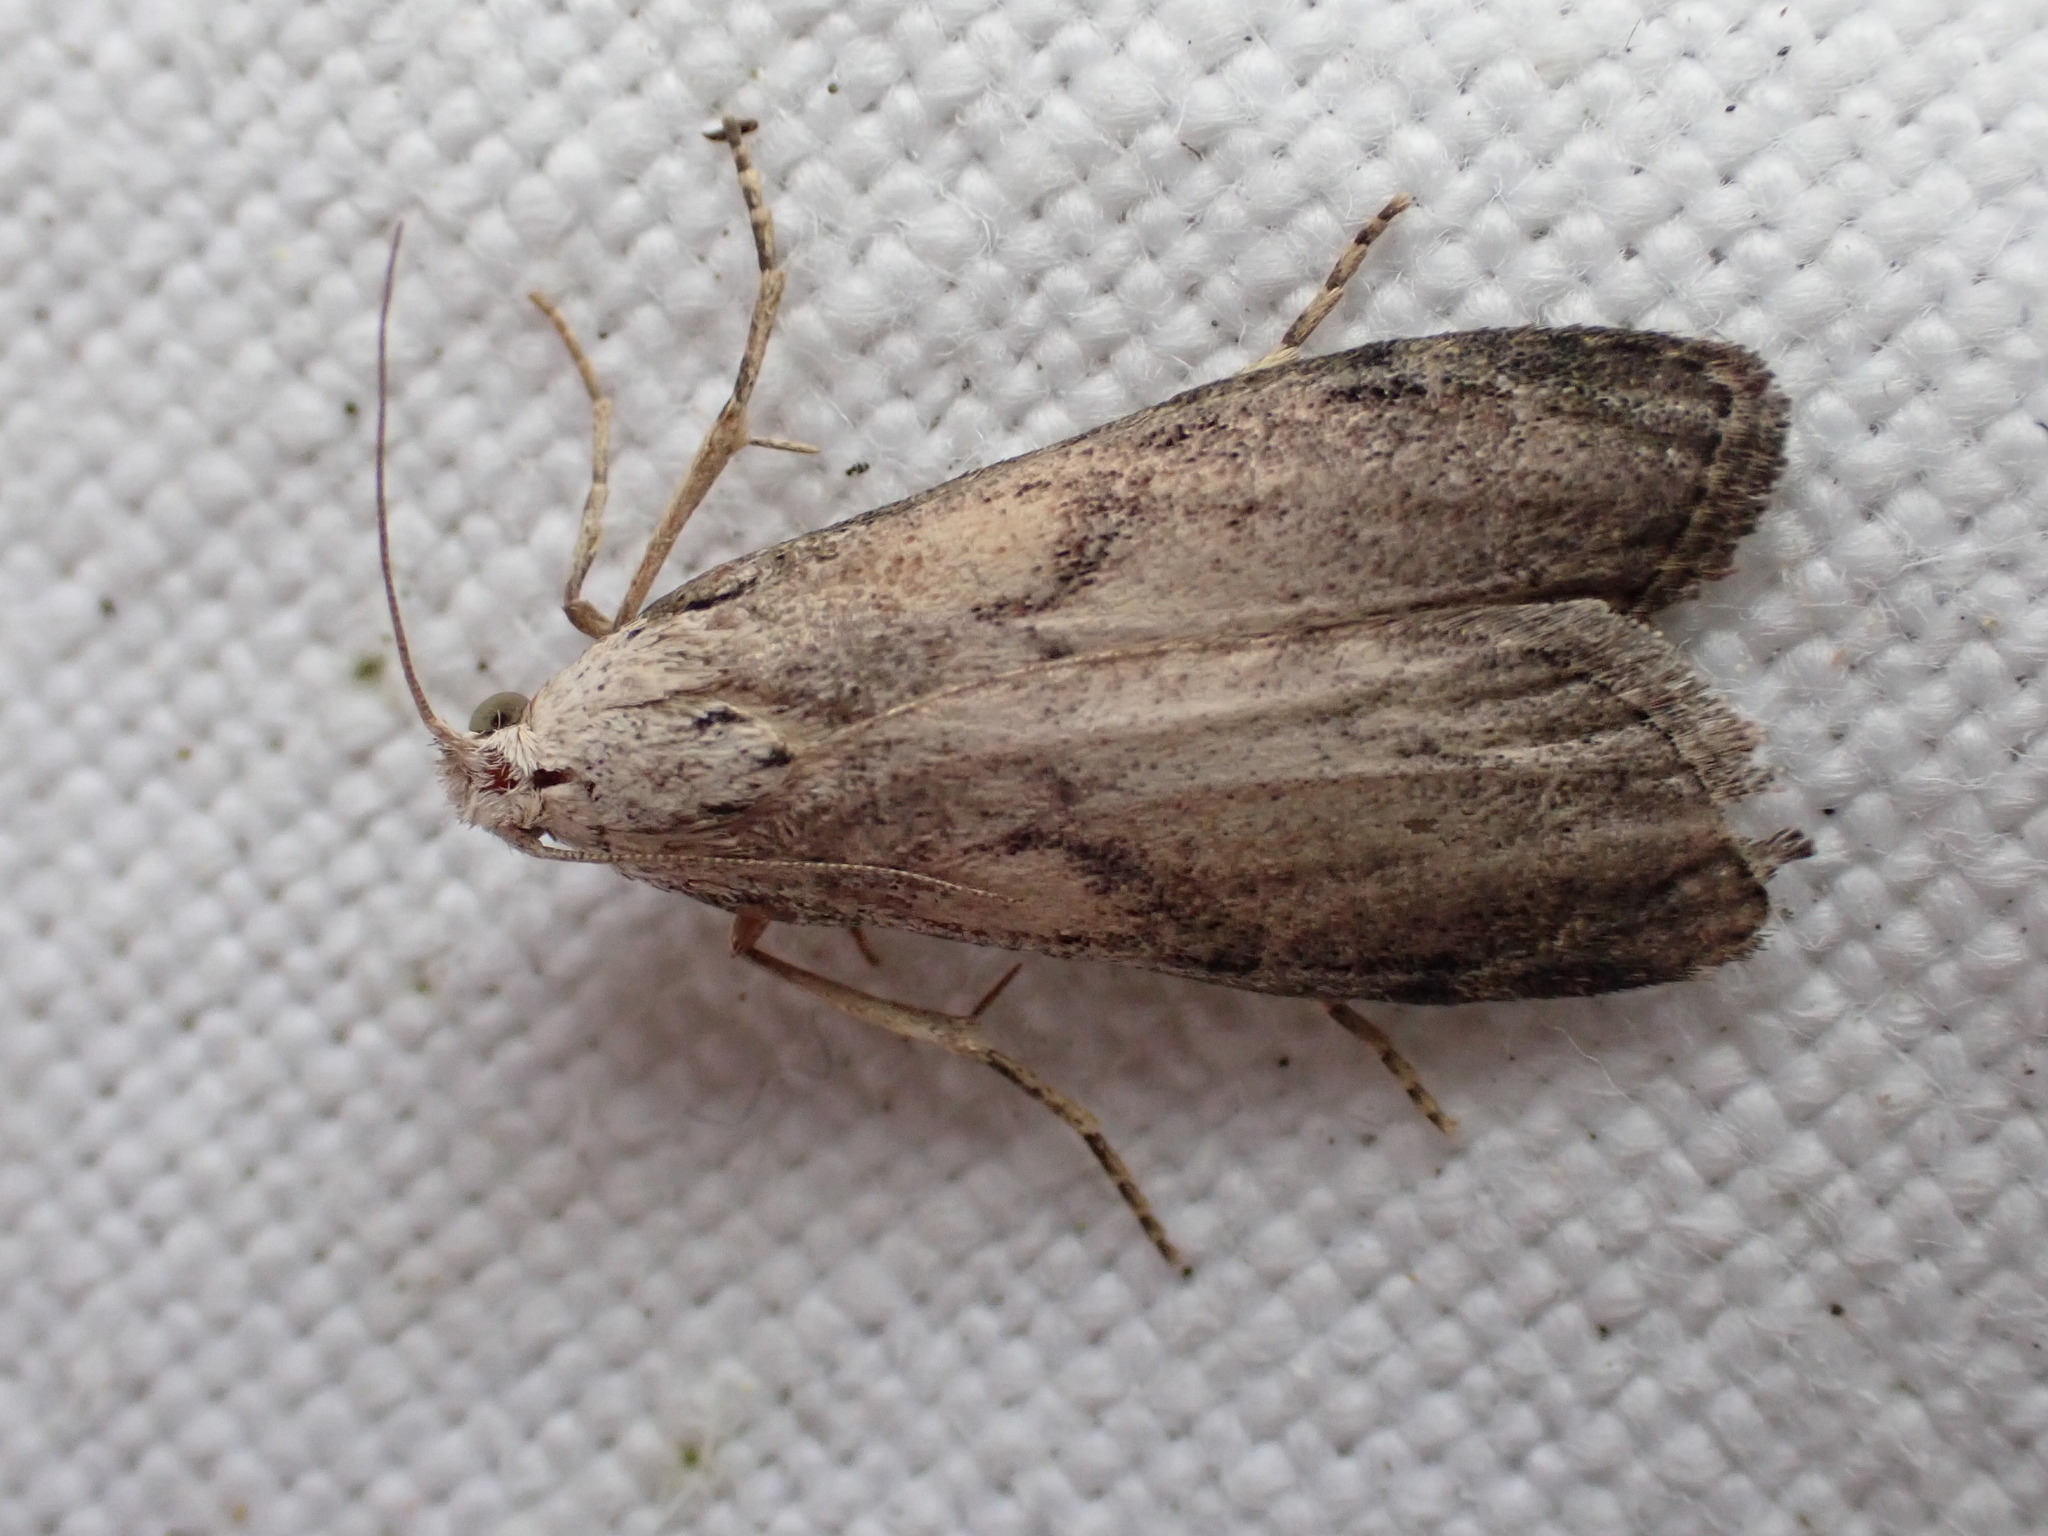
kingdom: Animalia
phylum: Arthropoda
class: Insecta
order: Lepidoptera
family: Pyralidae
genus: Aphomia
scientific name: Aphomia sociella
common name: Bee moth
